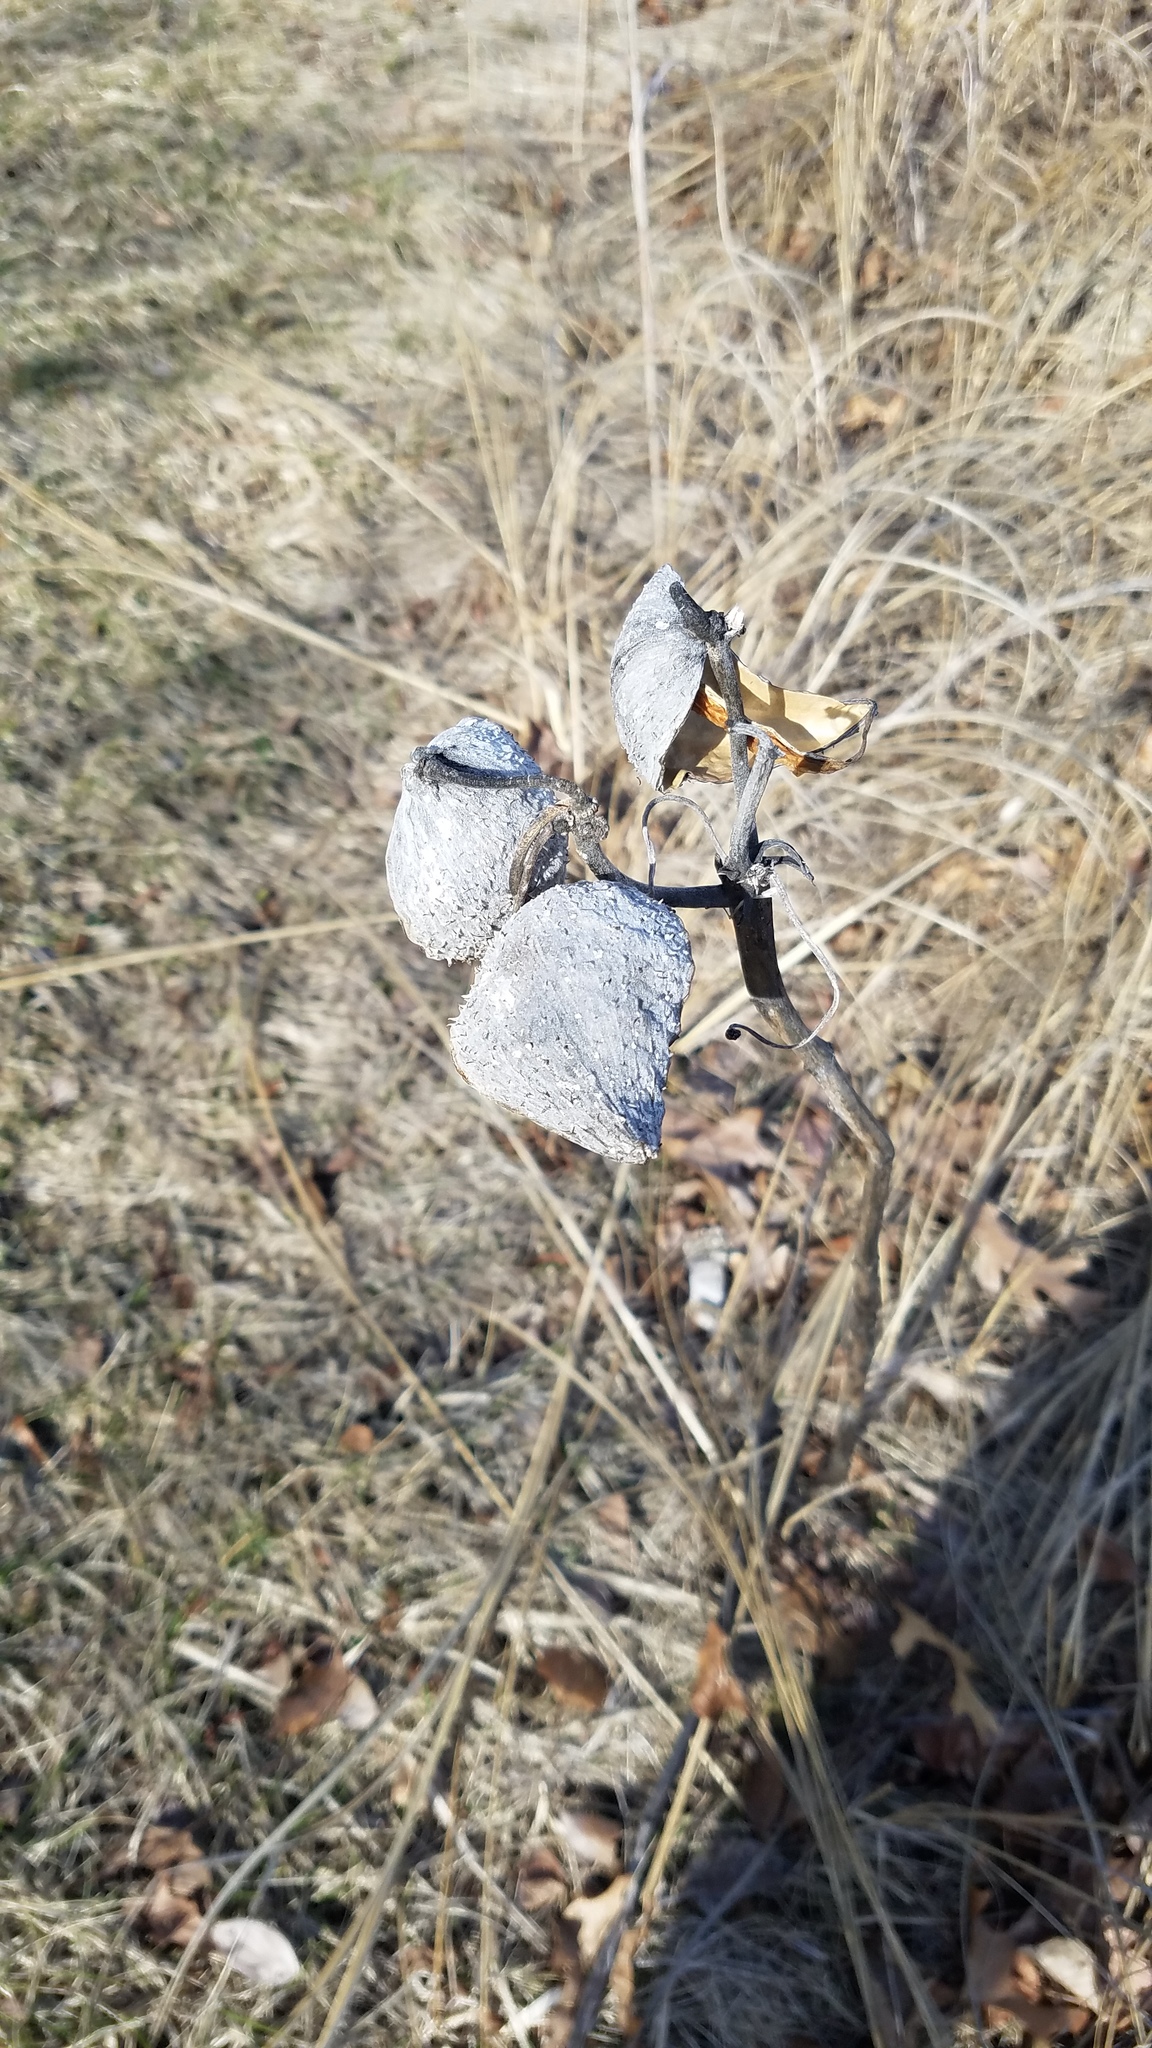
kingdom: Plantae
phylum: Tracheophyta
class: Magnoliopsida
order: Gentianales
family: Apocynaceae
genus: Asclepias
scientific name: Asclepias syriaca
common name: Common milkweed
